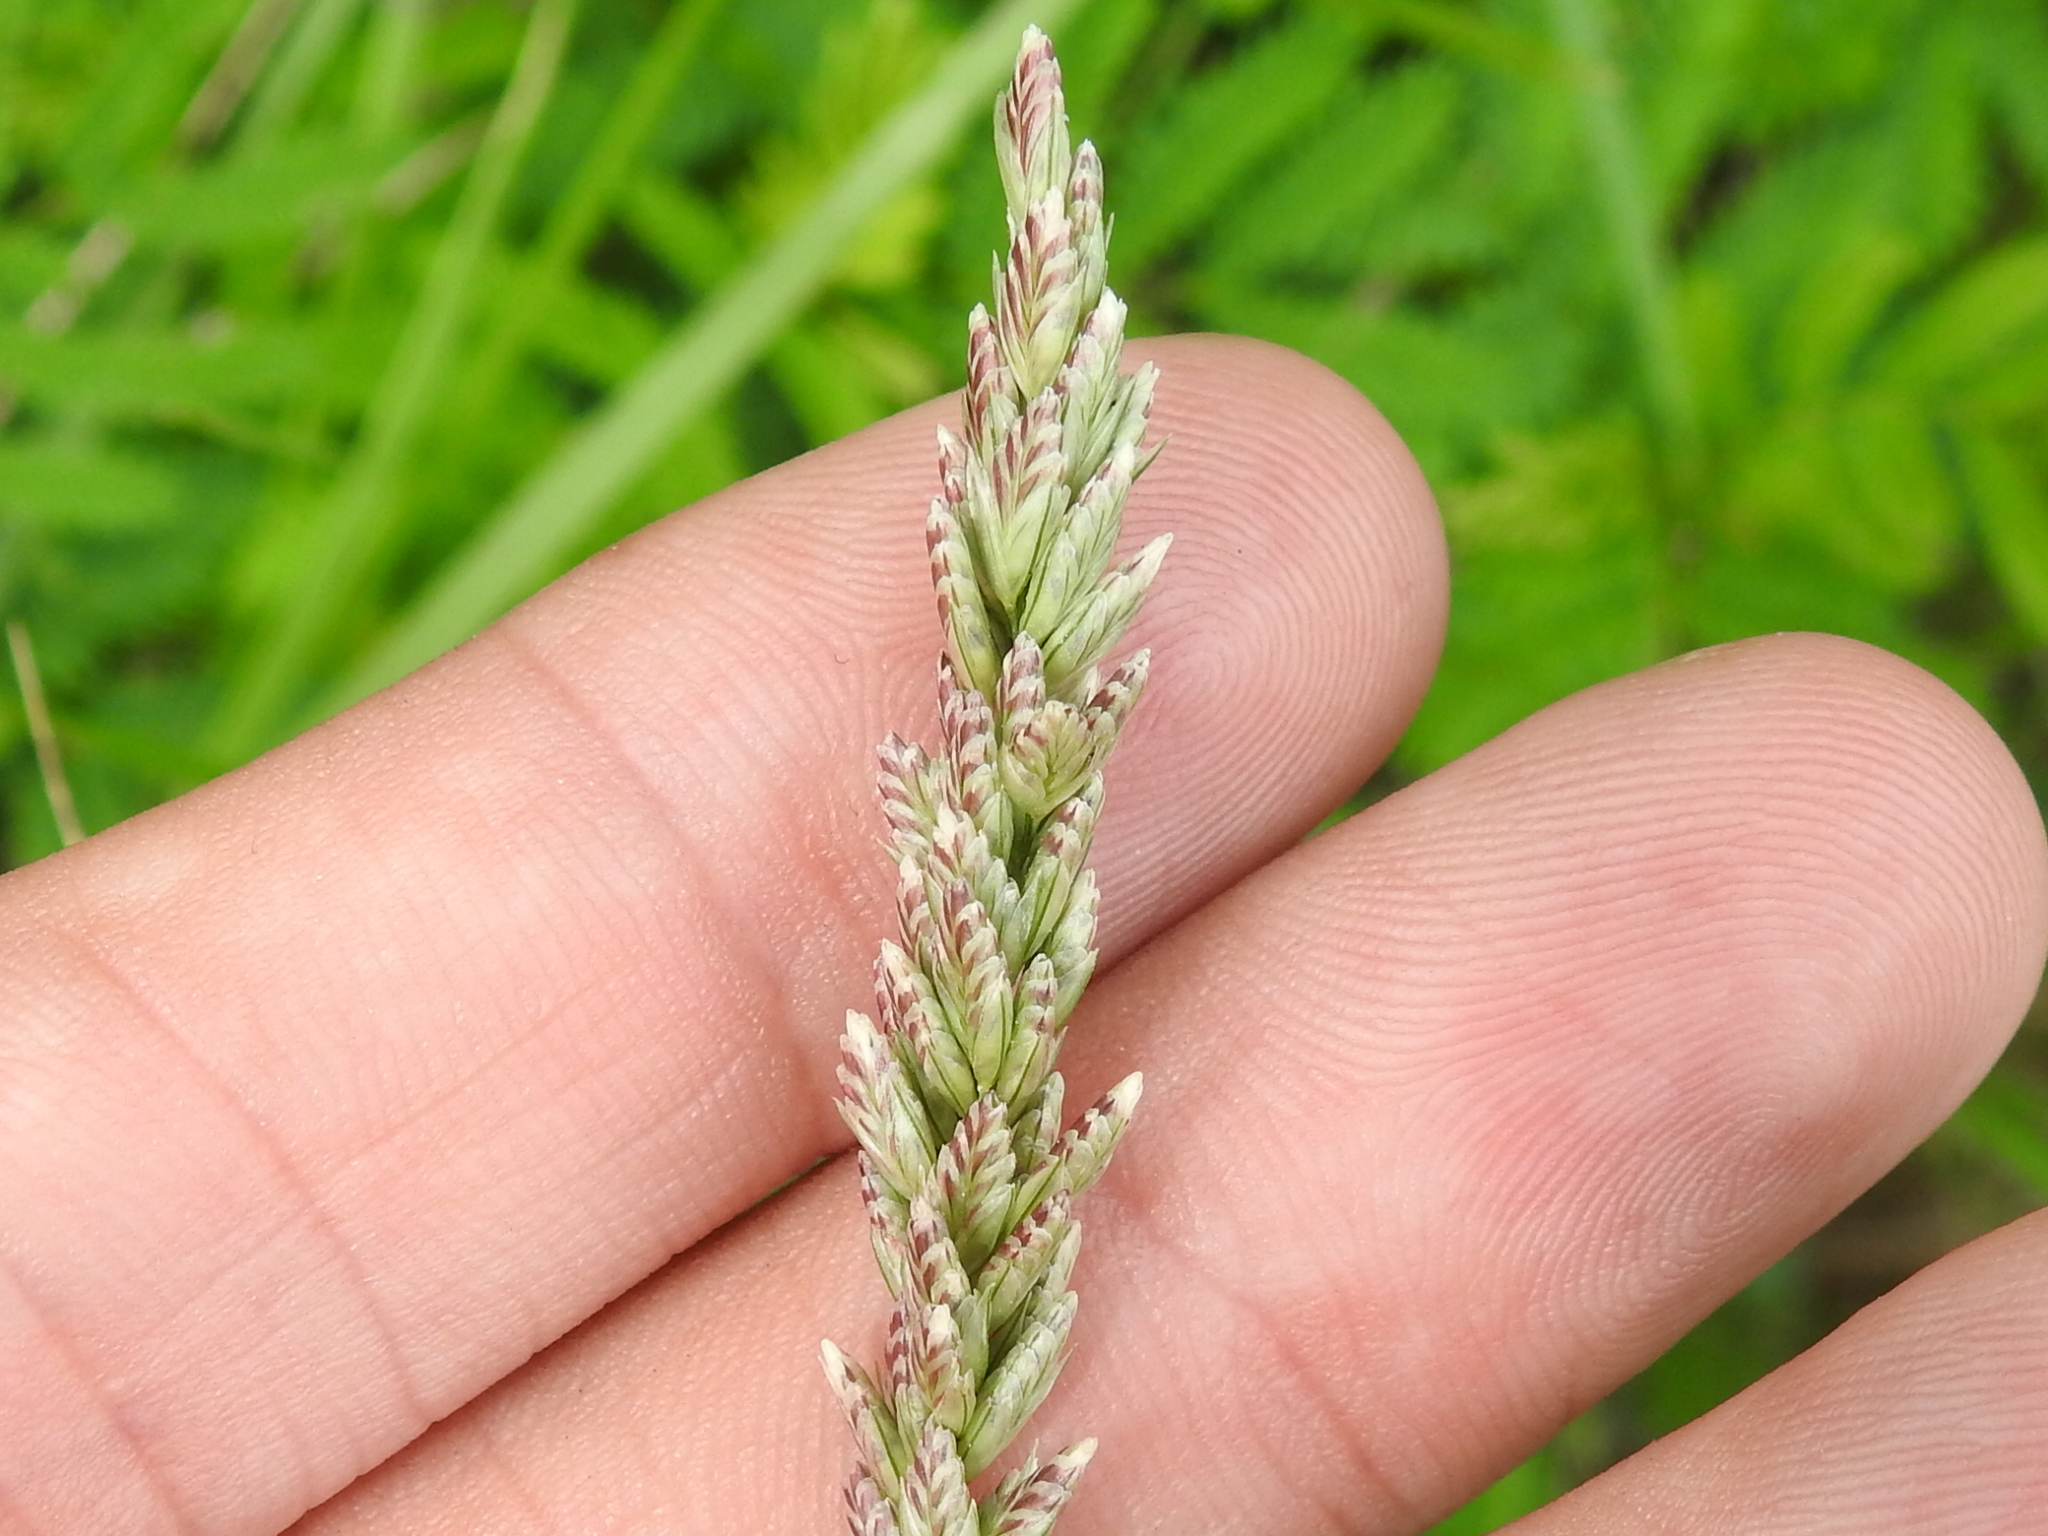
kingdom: Plantae
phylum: Tracheophyta
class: Liliopsida
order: Poales
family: Poaceae
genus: Tridens
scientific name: Tridens albescens
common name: White tridens
